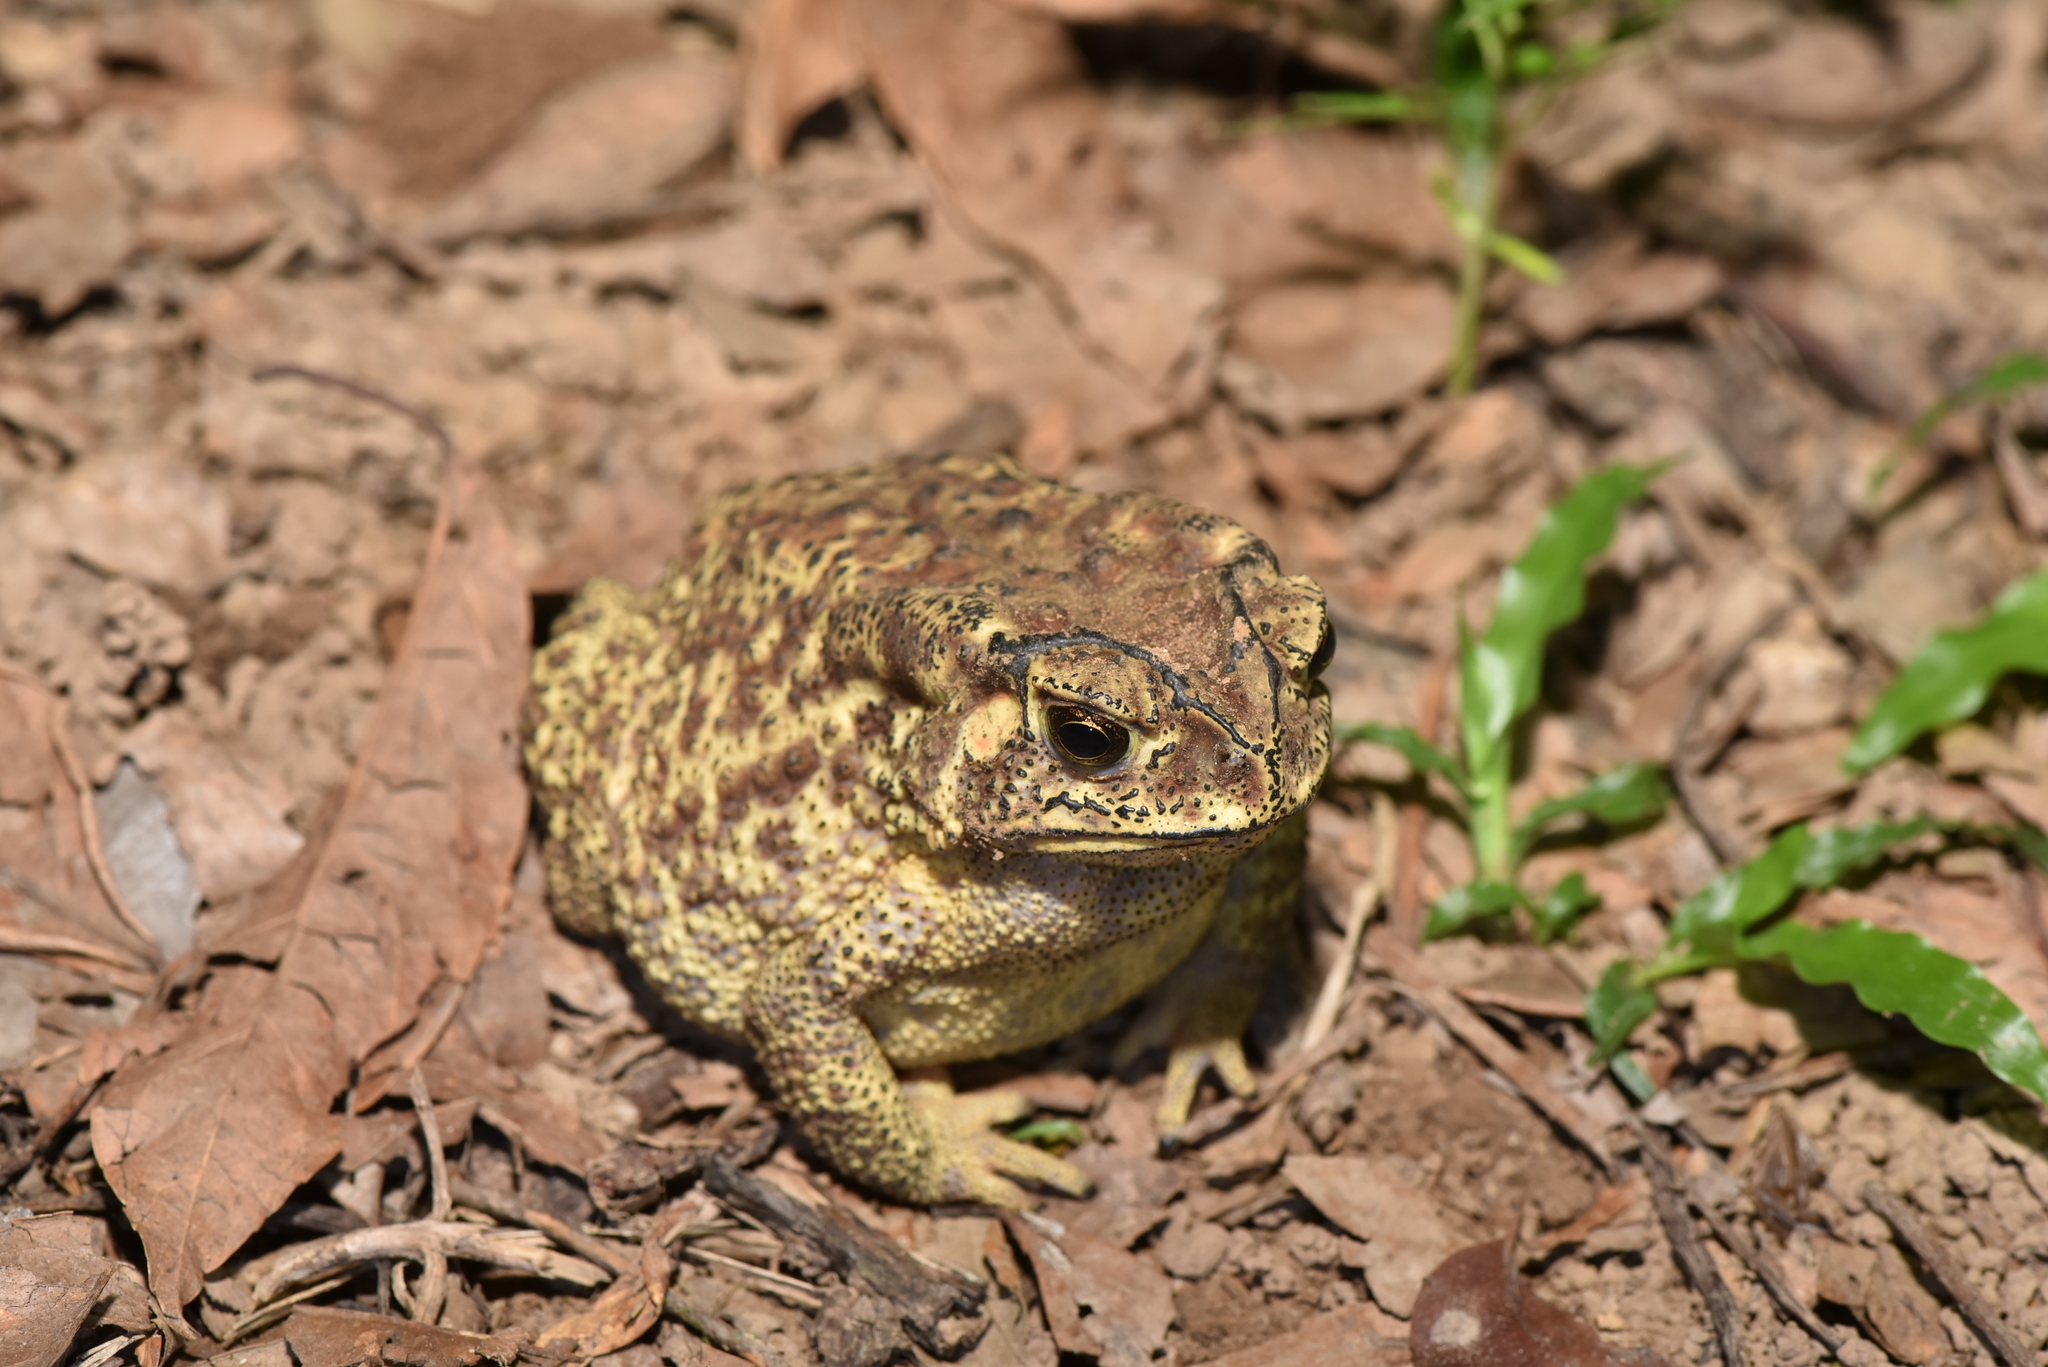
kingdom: Animalia
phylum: Chordata
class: Amphibia
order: Anura
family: Bufonidae
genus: Duttaphrynus
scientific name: Duttaphrynus melanostictus
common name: Common sunda toad
